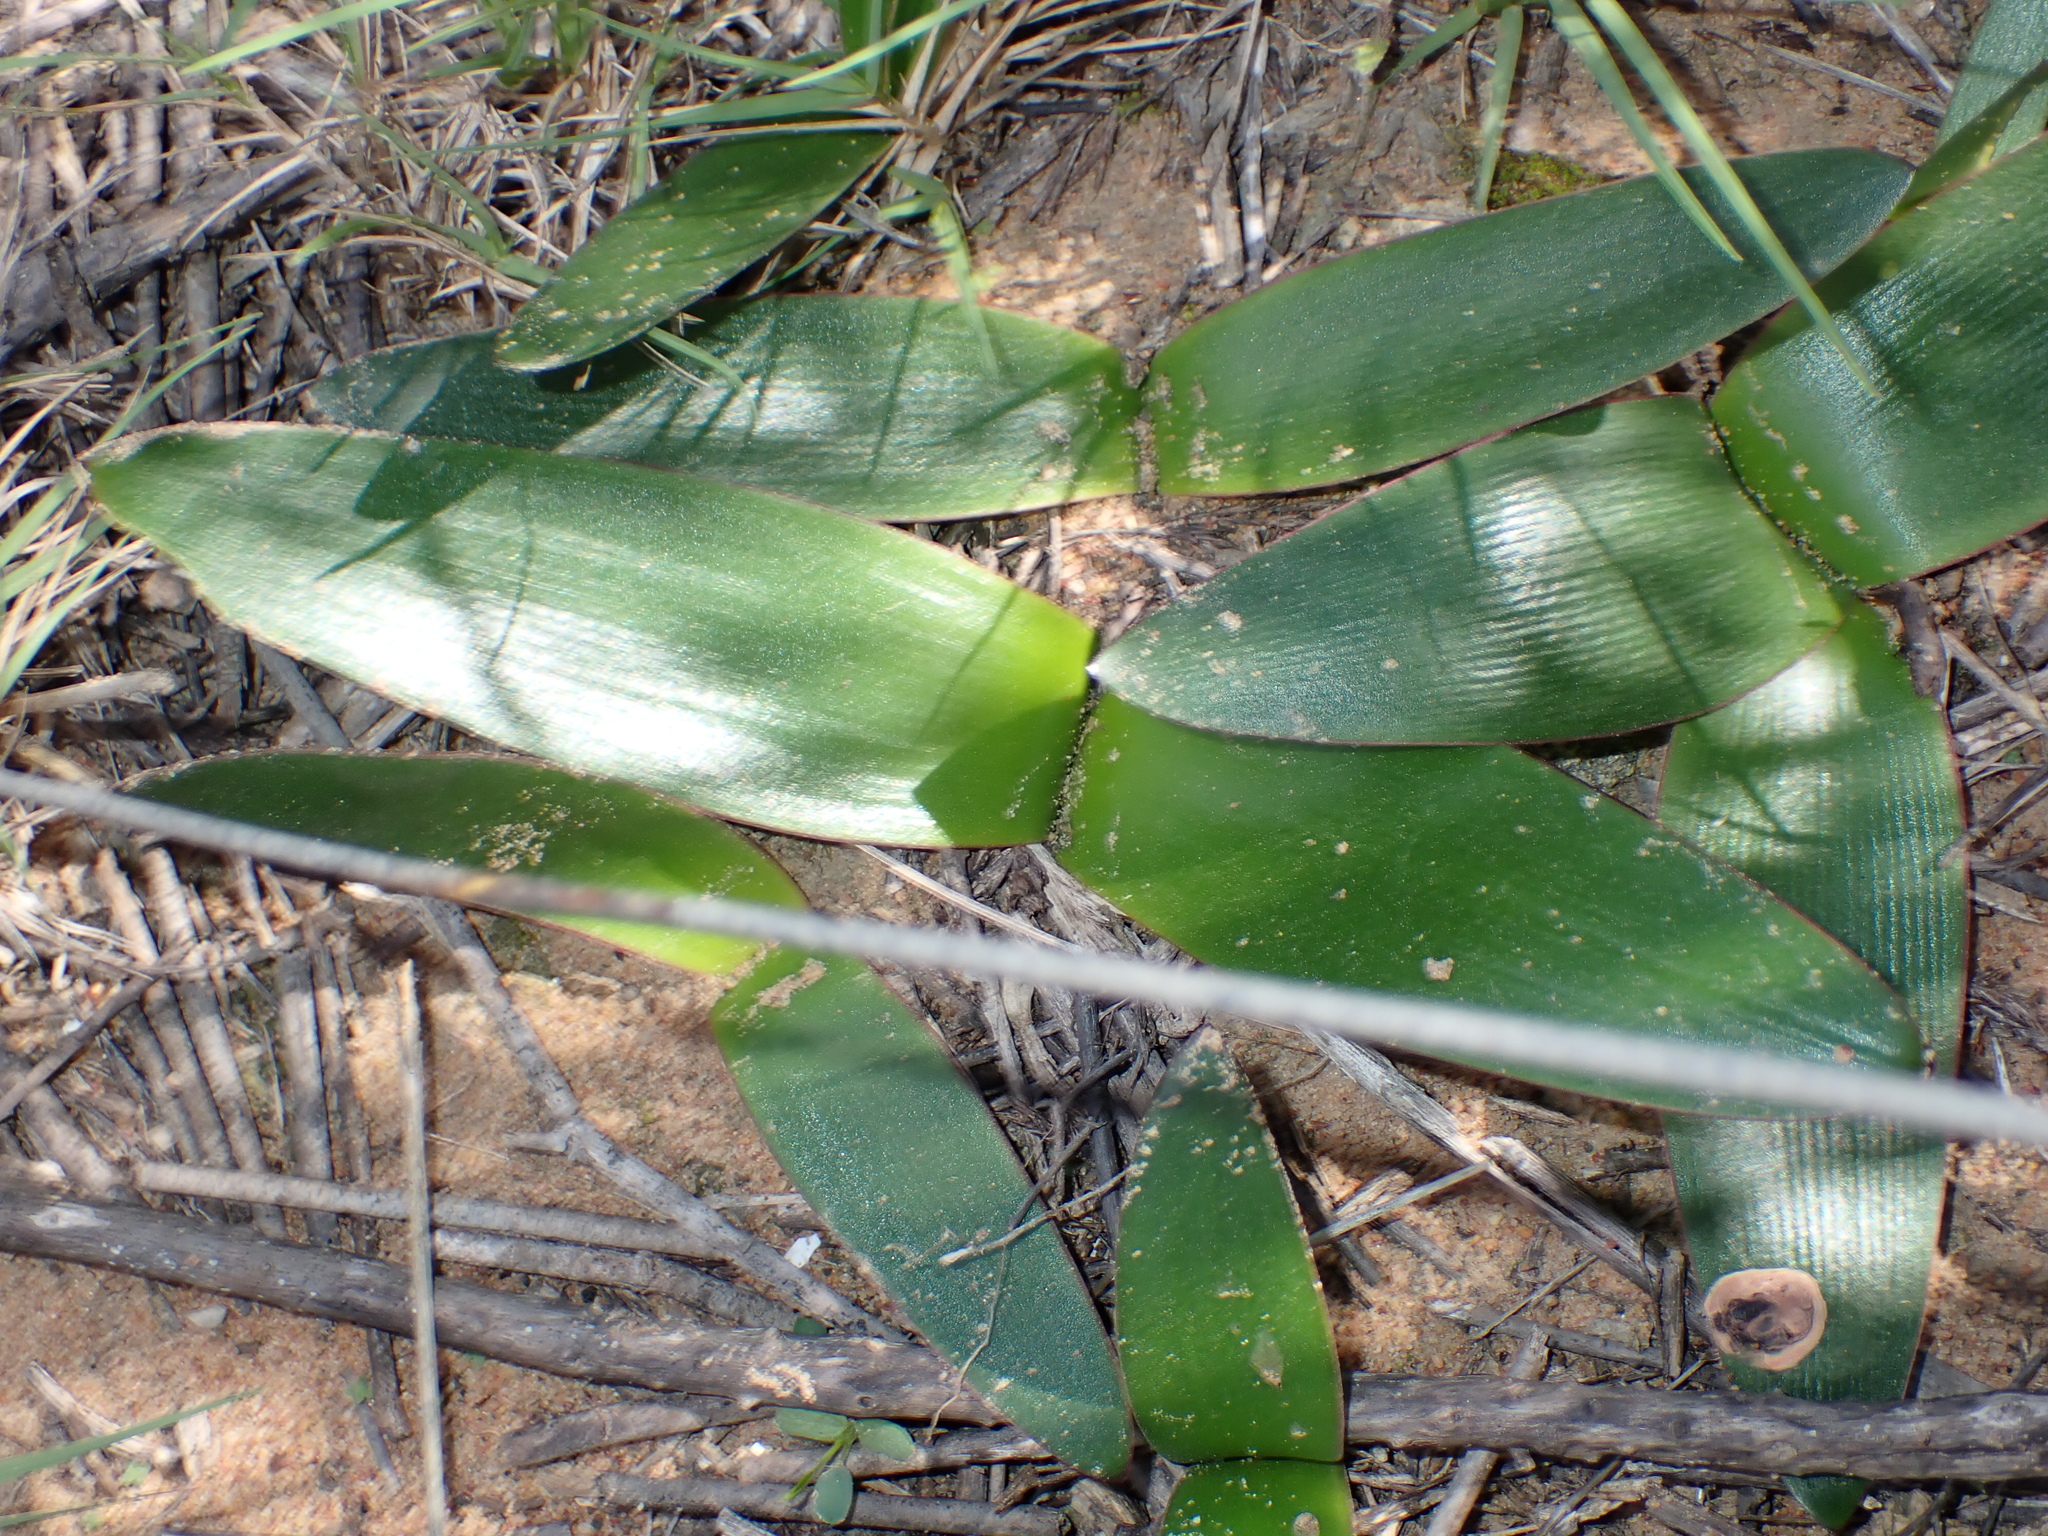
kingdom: Plantae
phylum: Tracheophyta
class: Liliopsida
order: Asparagales
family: Amaryllidaceae
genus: Brunsvigia
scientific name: Brunsvigia orientalis
